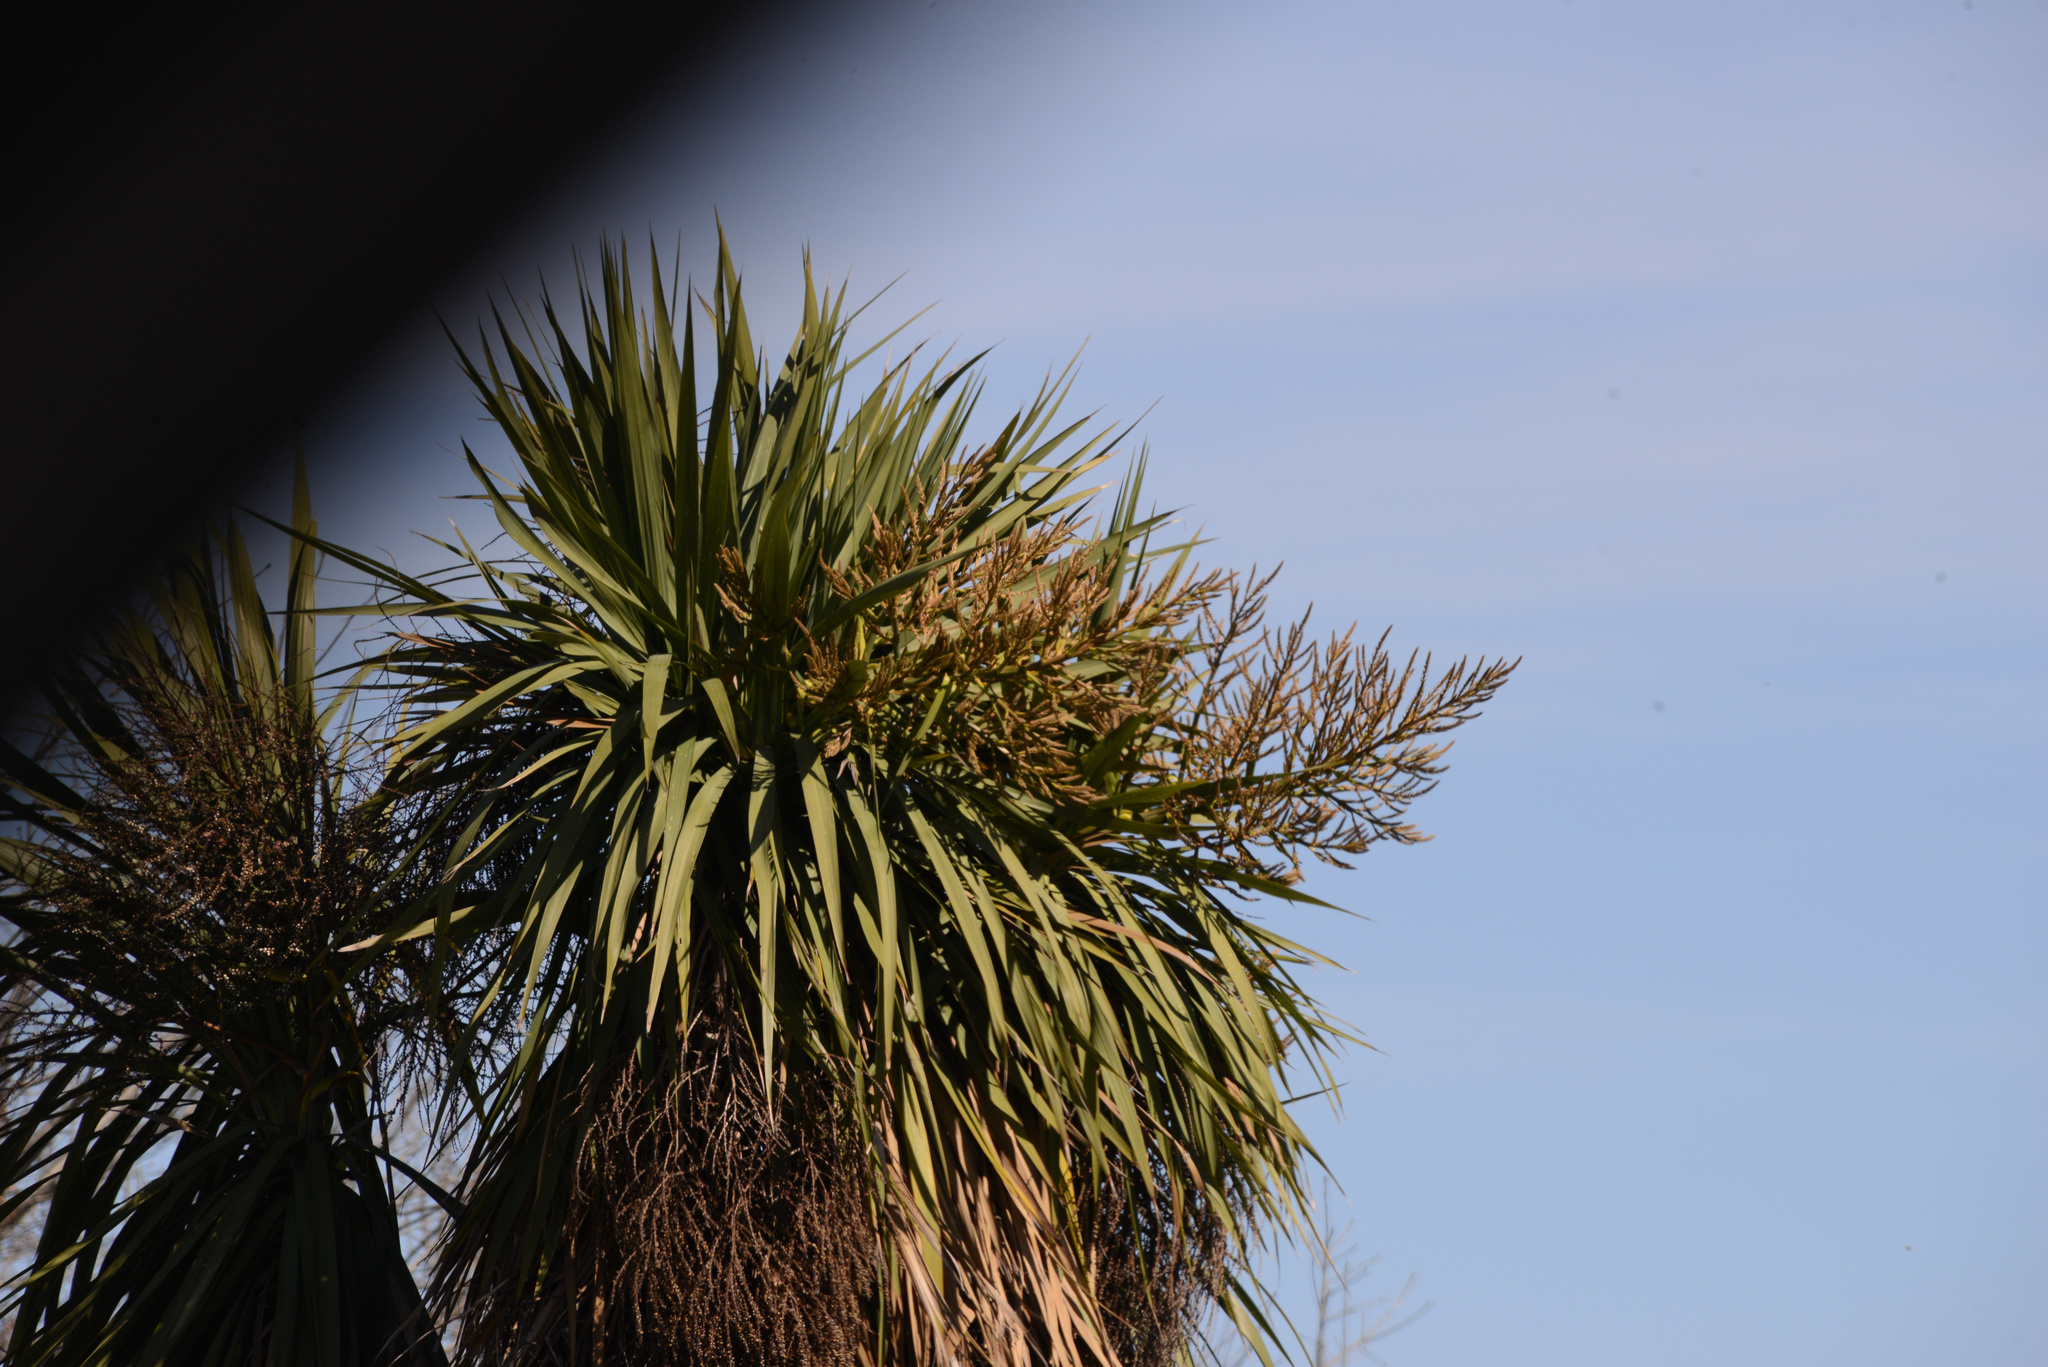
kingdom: Plantae
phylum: Tracheophyta
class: Liliopsida
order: Asparagales
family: Asparagaceae
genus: Cordyline
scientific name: Cordyline australis
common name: Cabbage-palm
